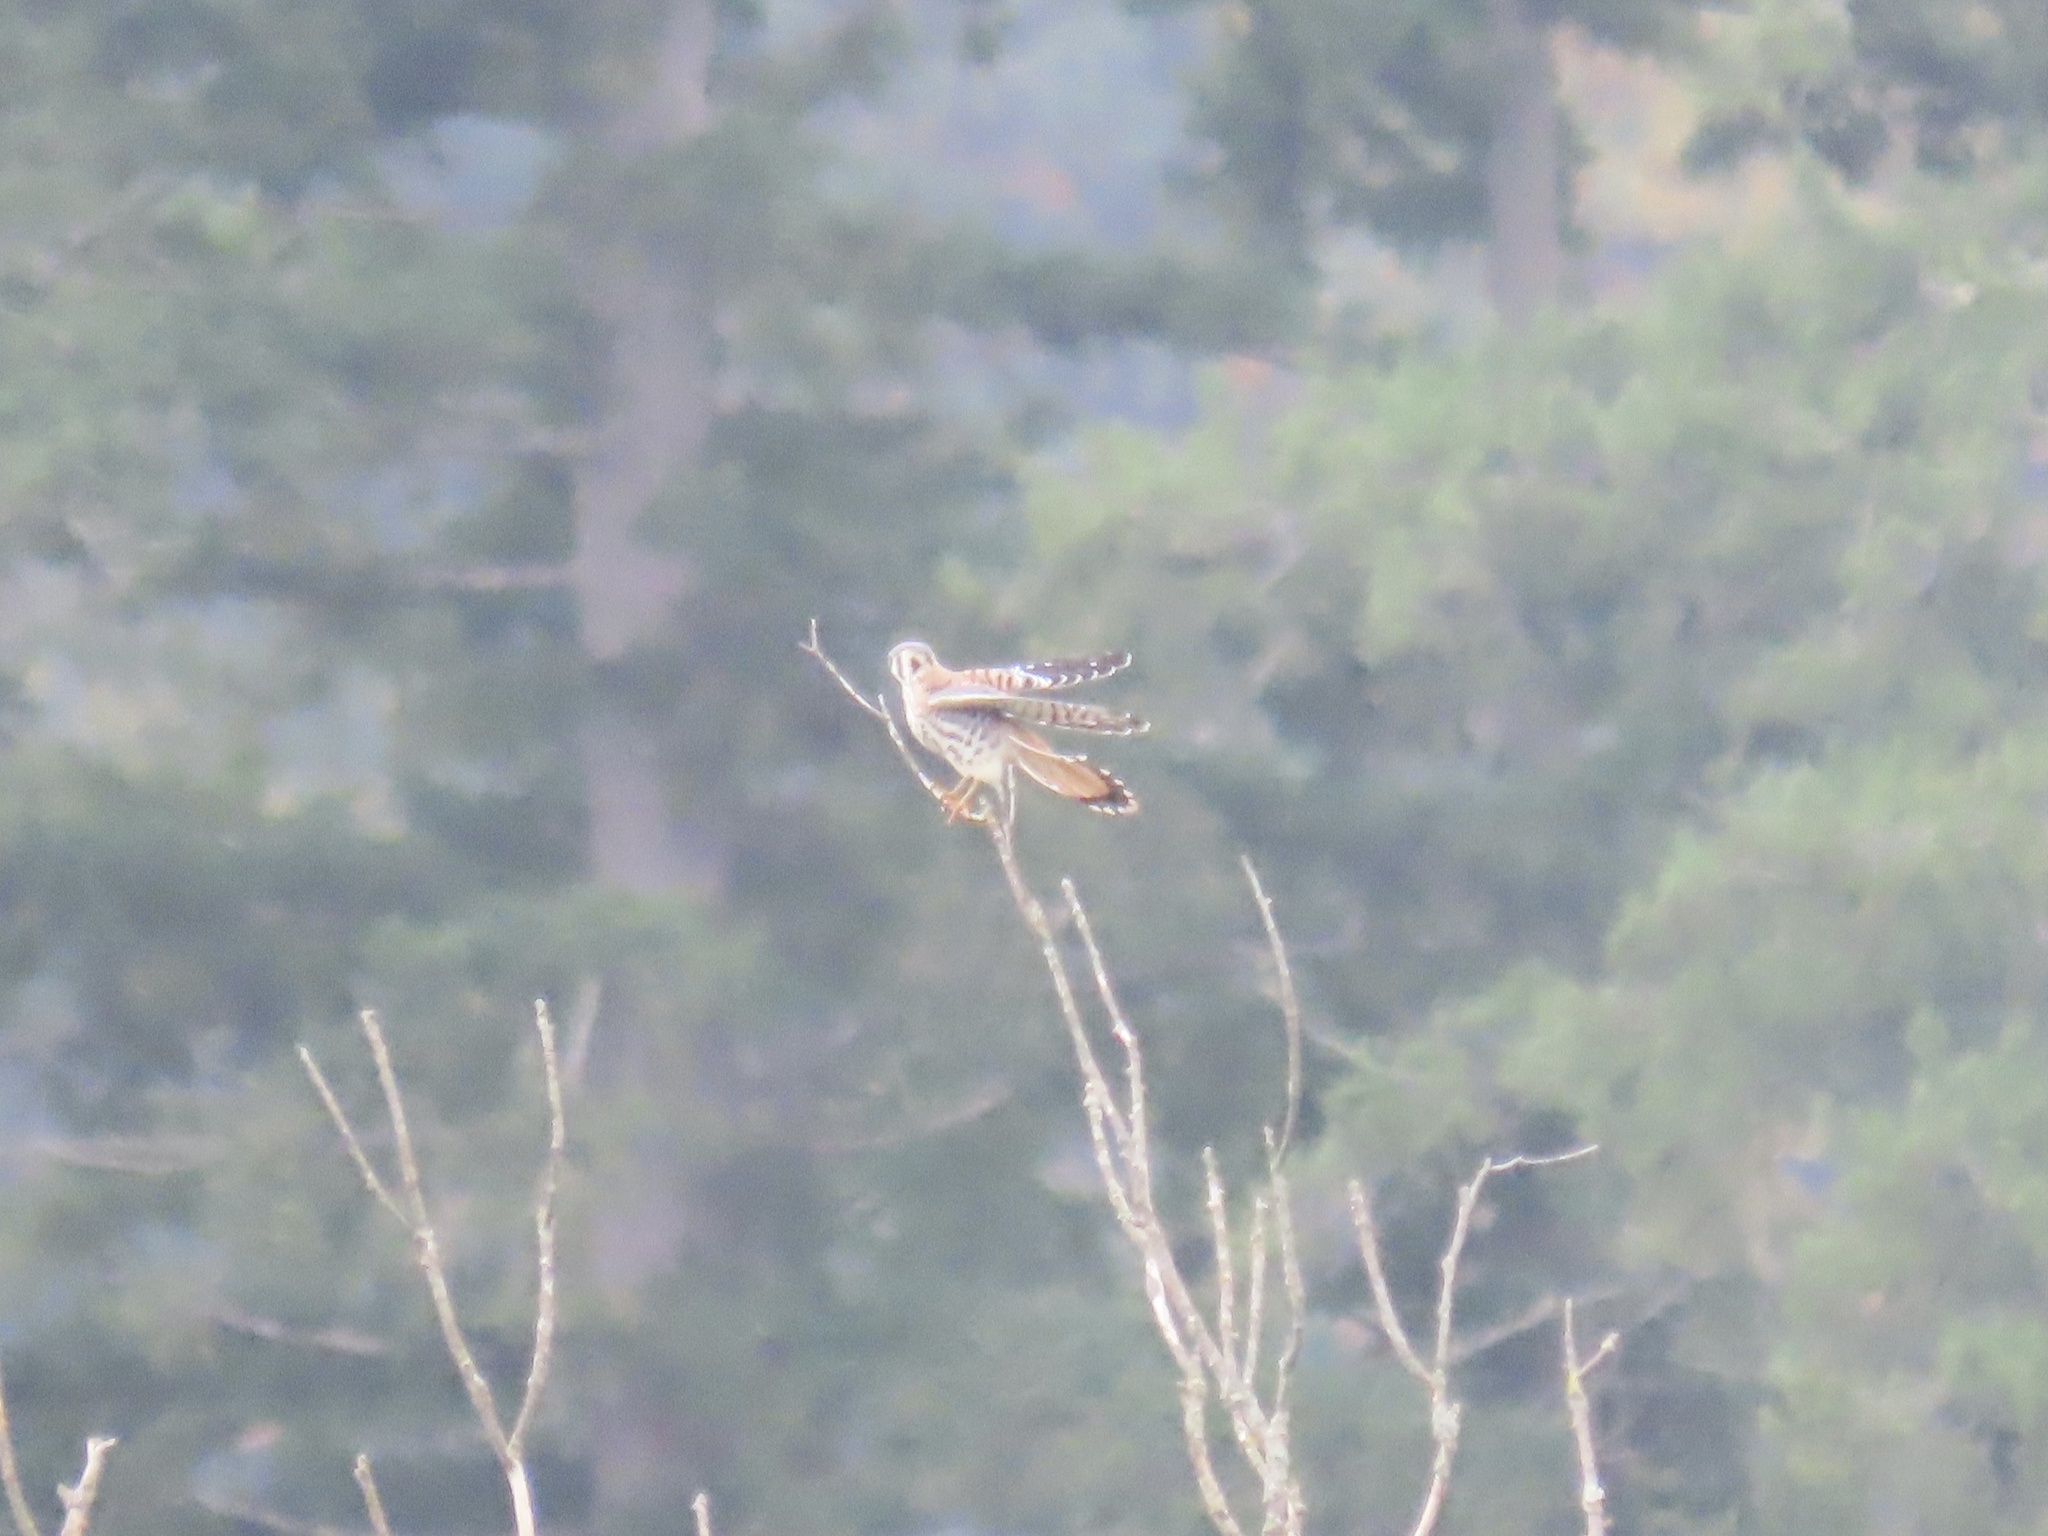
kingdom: Animalia
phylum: Chordata
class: Aves
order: Falconiformes
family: Falconidae
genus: Falco
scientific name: Falco sparverius
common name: American kestrel
